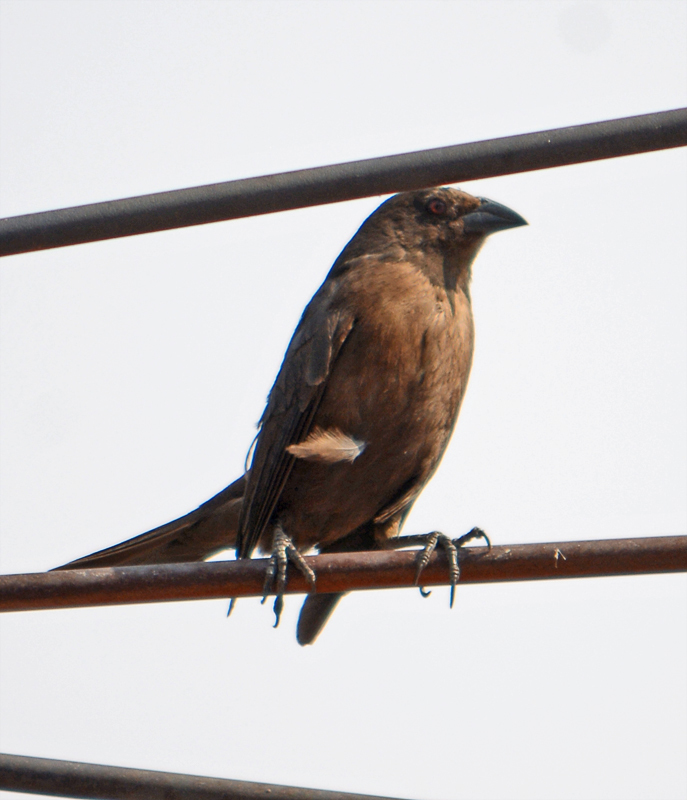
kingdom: Animalia
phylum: Chordata
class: Aves
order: Passeriformes
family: Icteridae
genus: Molothrus
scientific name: Molothrus aeneus
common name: Bronzed cowbird
